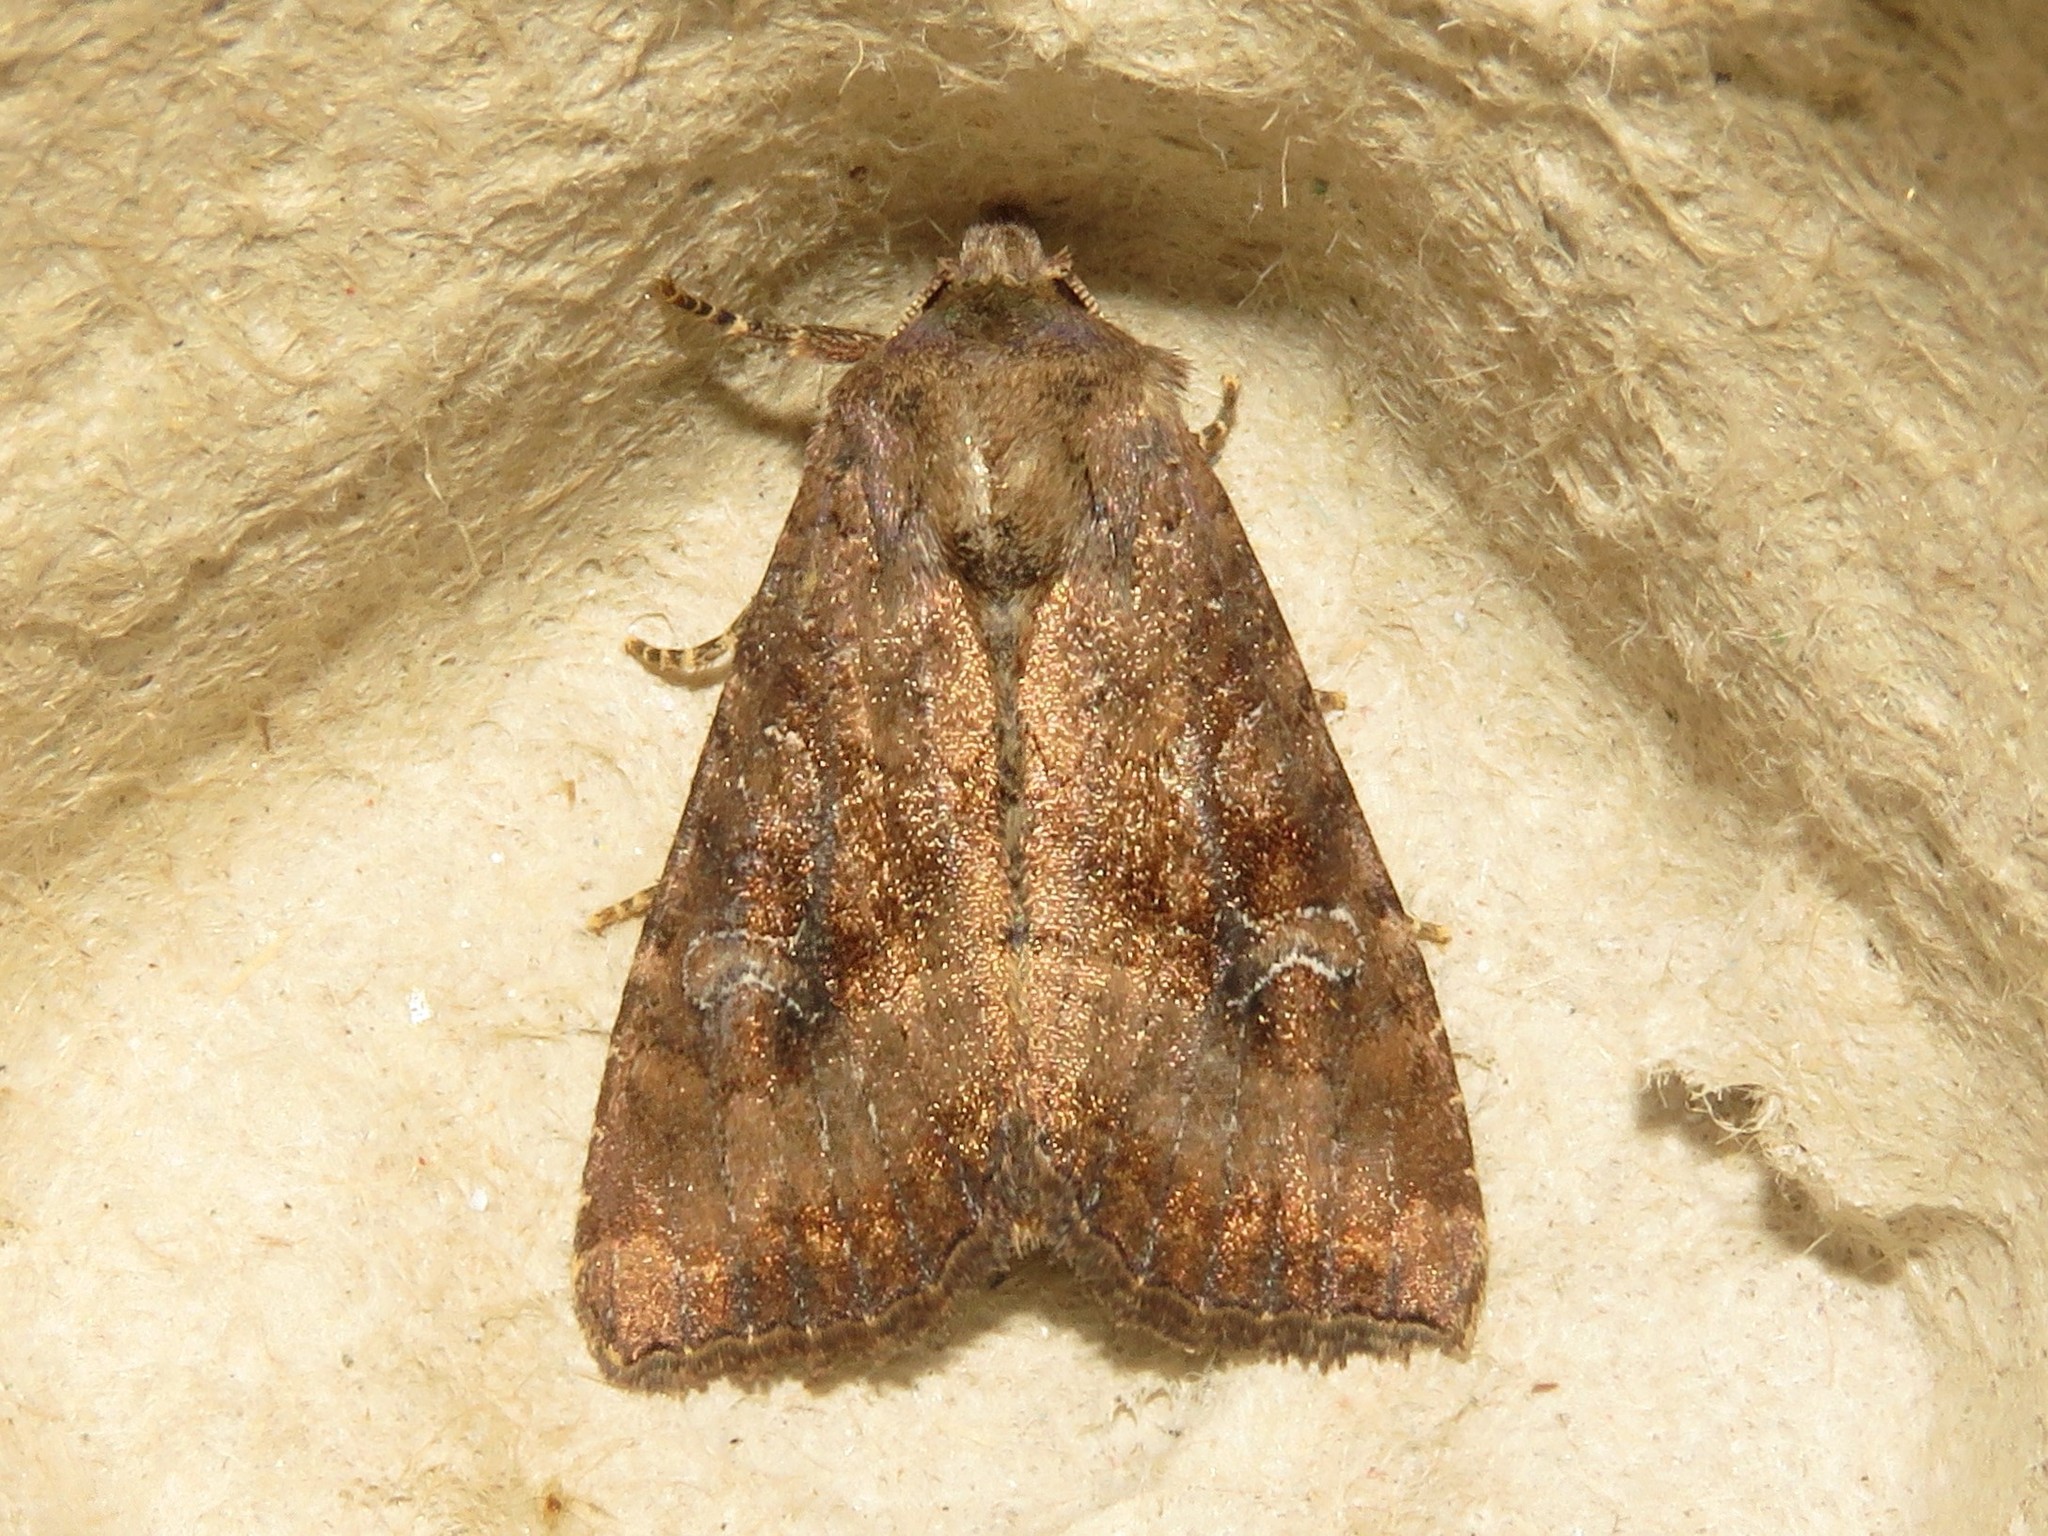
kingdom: Animalia
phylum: Arthropoda
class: Insecta
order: Lepidoptera
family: Noctuidae
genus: Loscopia
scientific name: Loscopia velata
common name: Veiled ear moth
